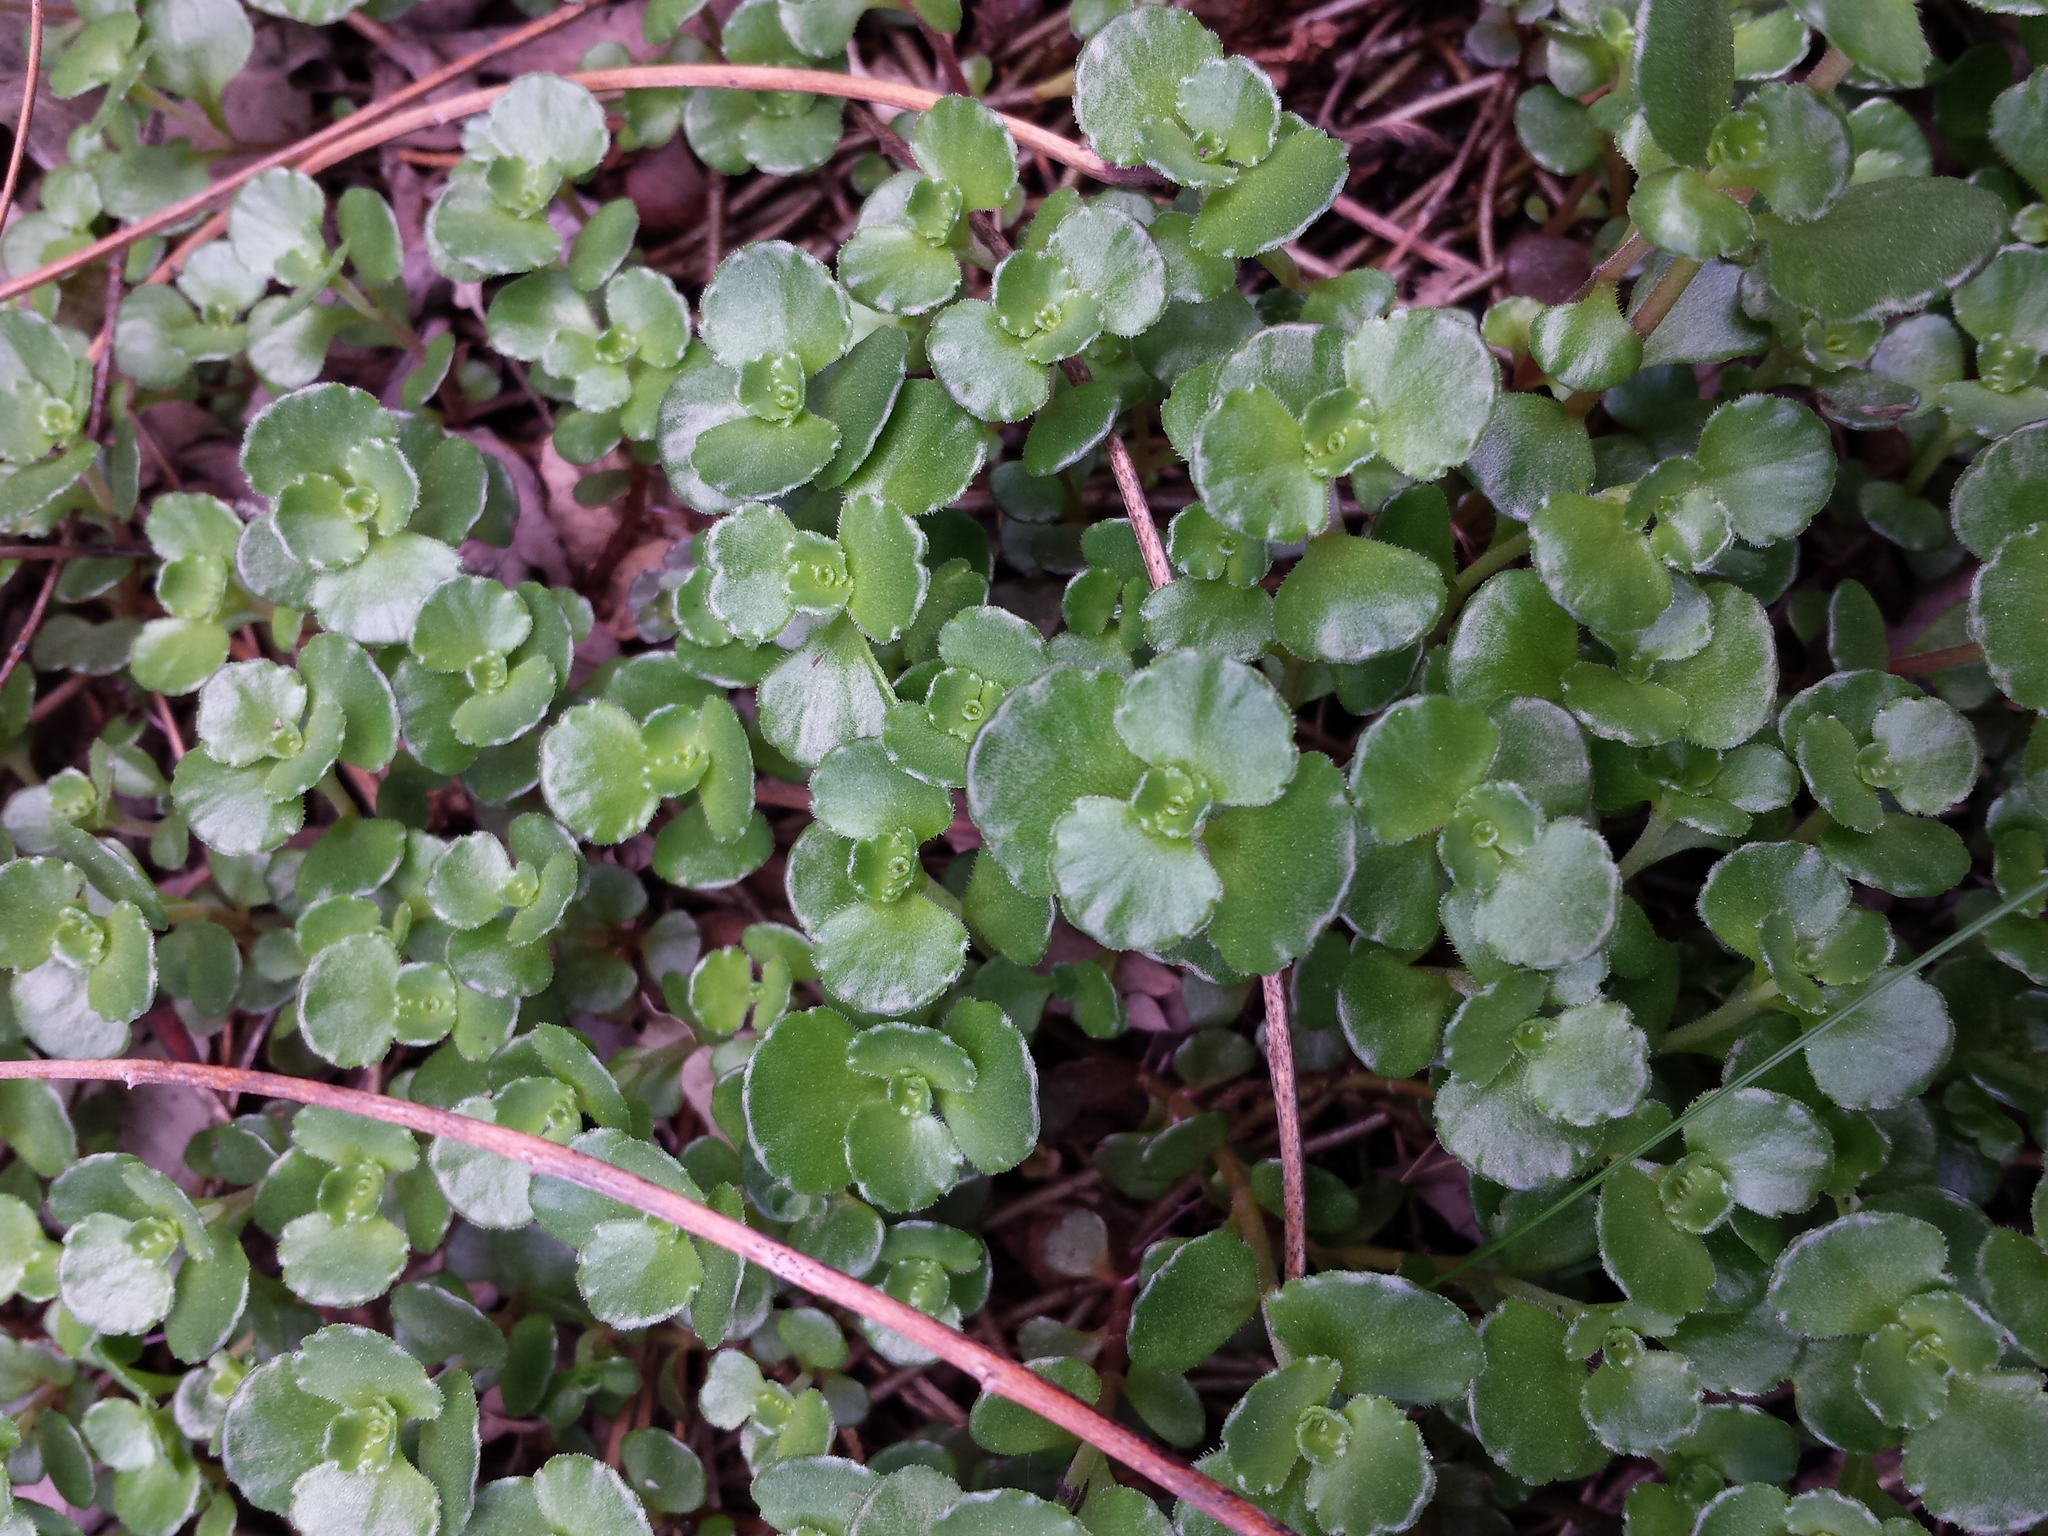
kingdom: Plantae
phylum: Tracheophyta
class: Magnoliopsida
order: Saxifragales
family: Crassulaceae
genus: Phedimus
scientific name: Phedimus spurius
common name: Caucasian stonecrop
